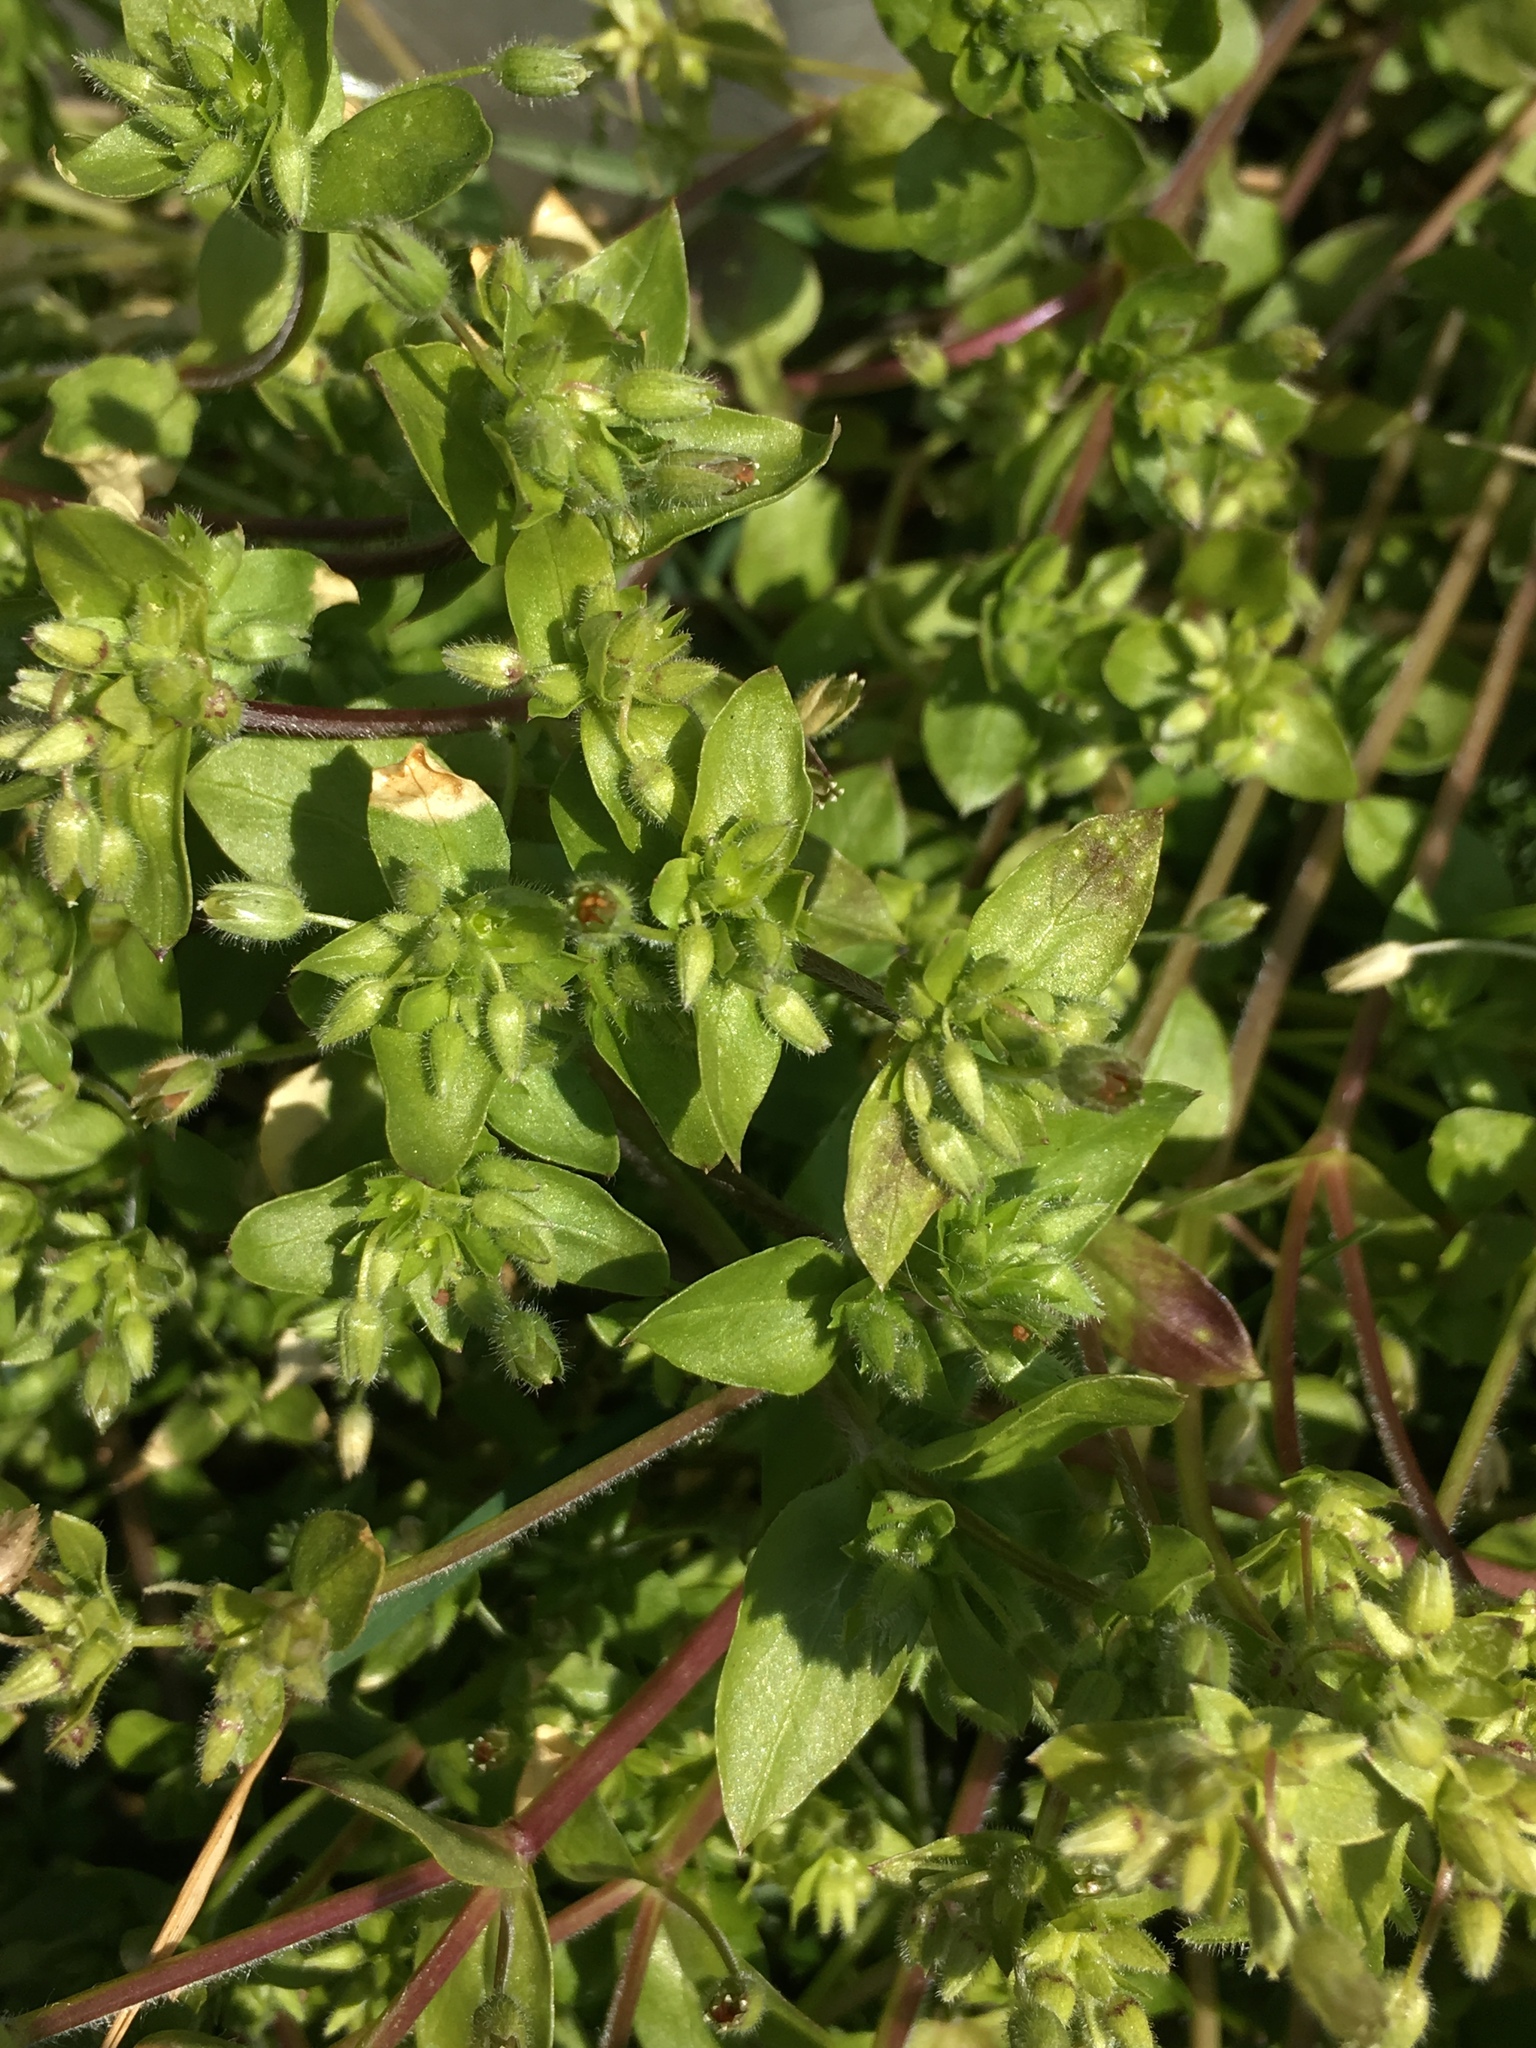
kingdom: Plantae
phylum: Tracheophyta
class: Magnoliopsida
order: Caryophyllales
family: Caryophyllaceae
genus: Stellaria
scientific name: Stellaria apetala
